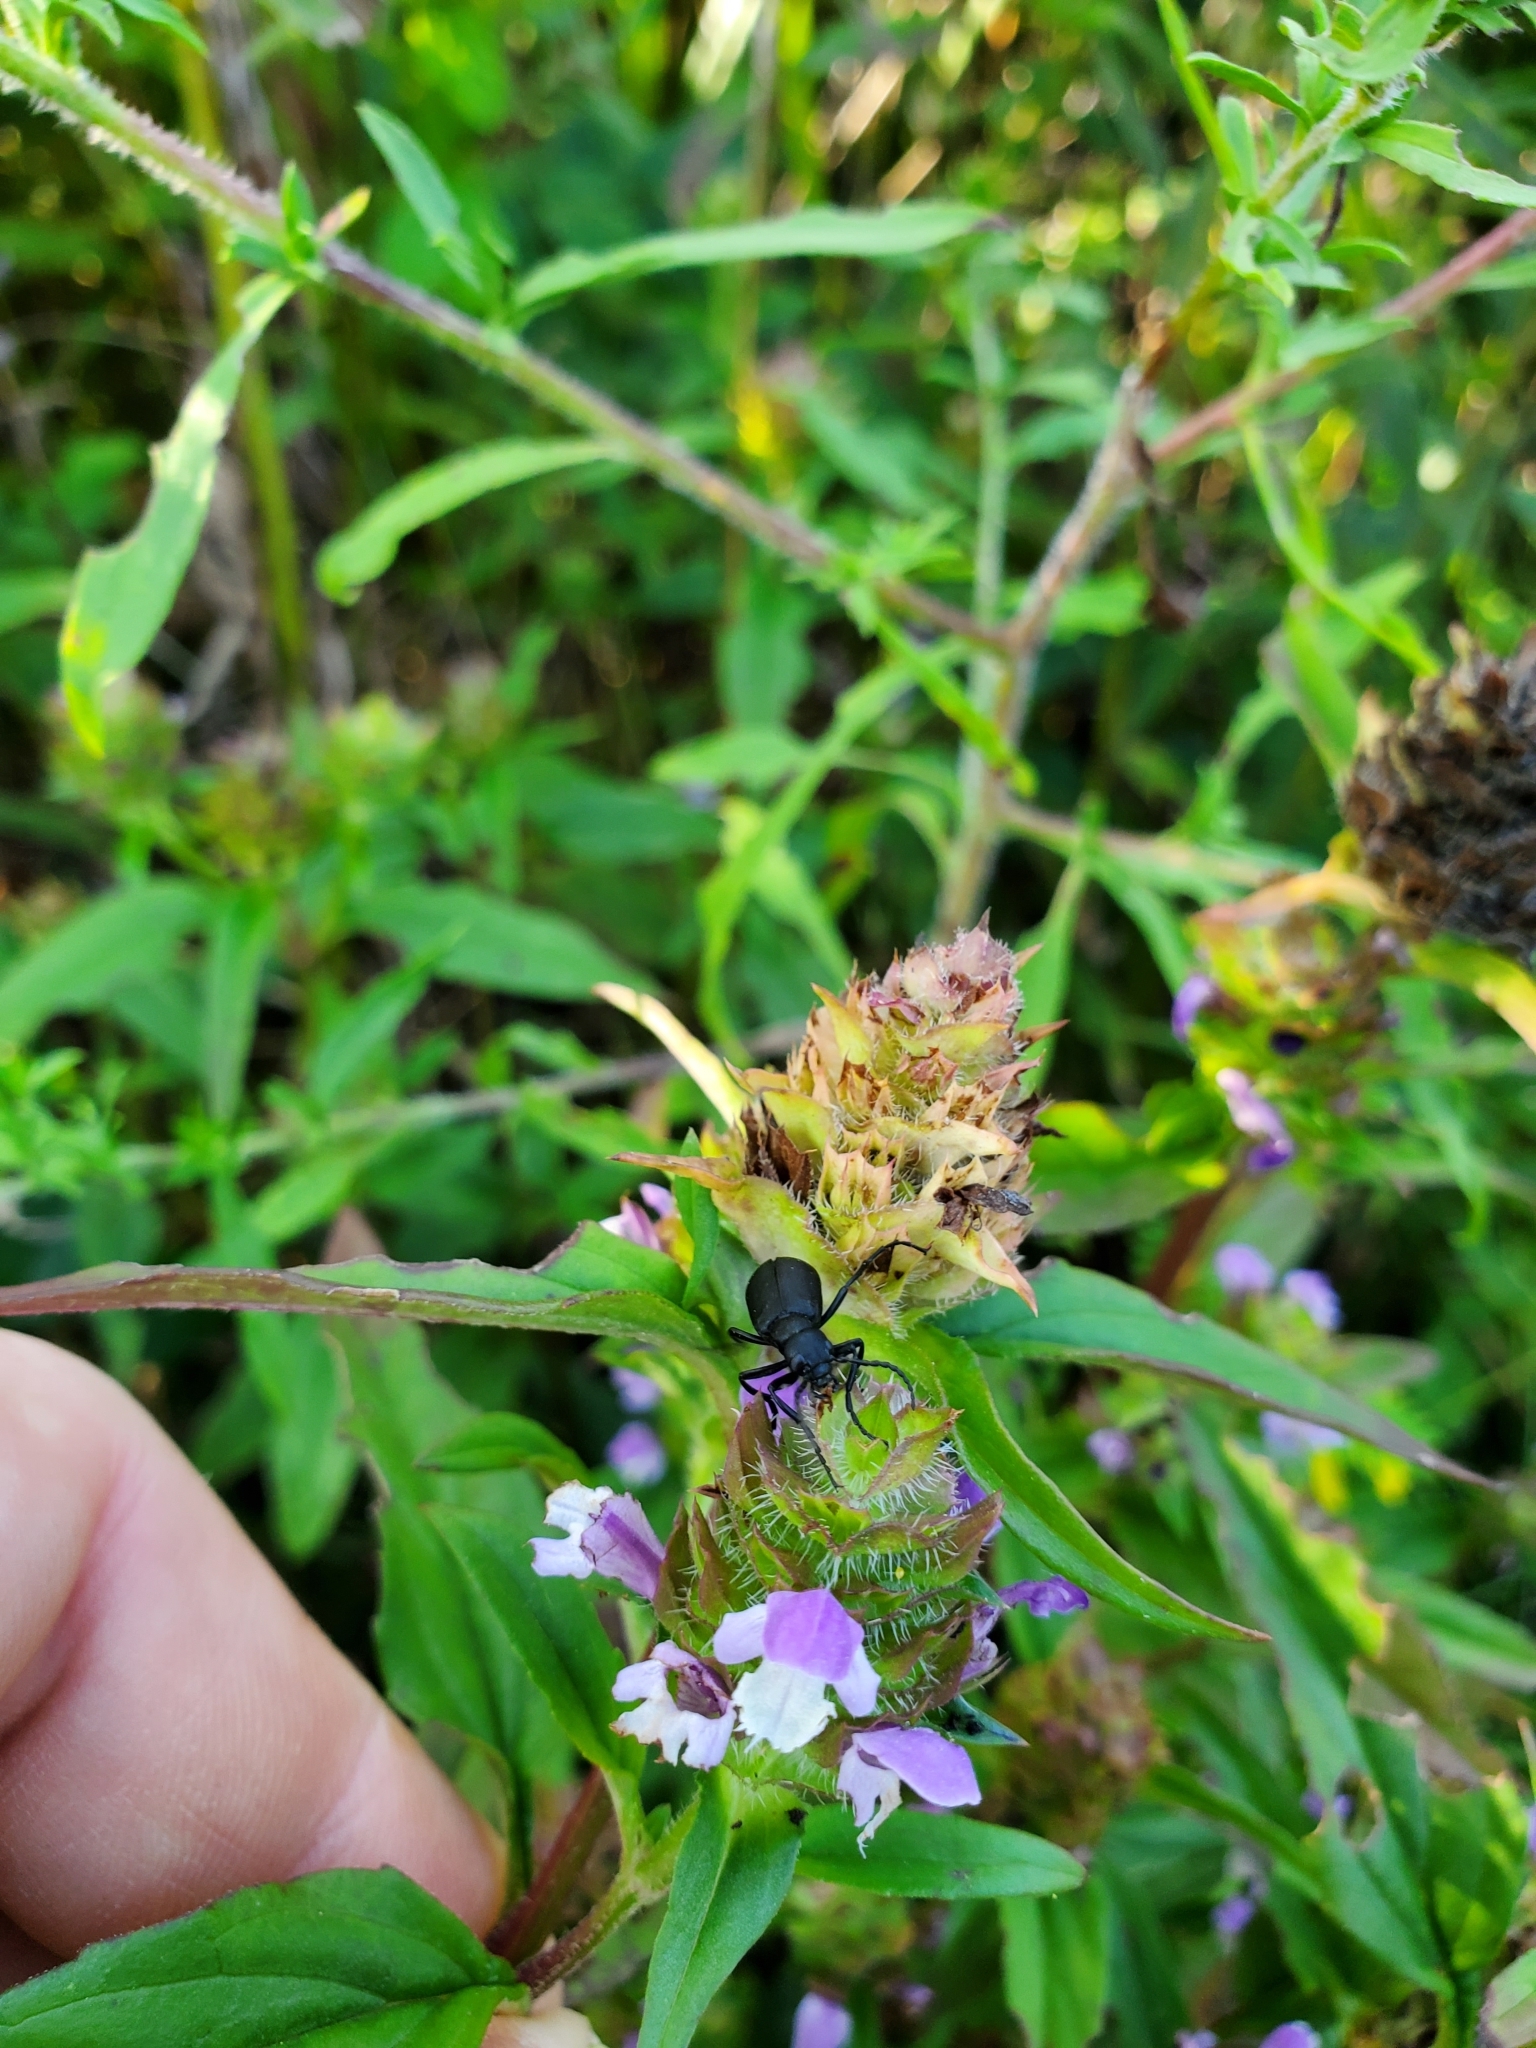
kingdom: Plantae
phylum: Tracheophyta
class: Magnoliopsida
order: Lamiales
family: Lamiaceae
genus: Prunella
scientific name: Prunella vulgaris
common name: Heal-all
